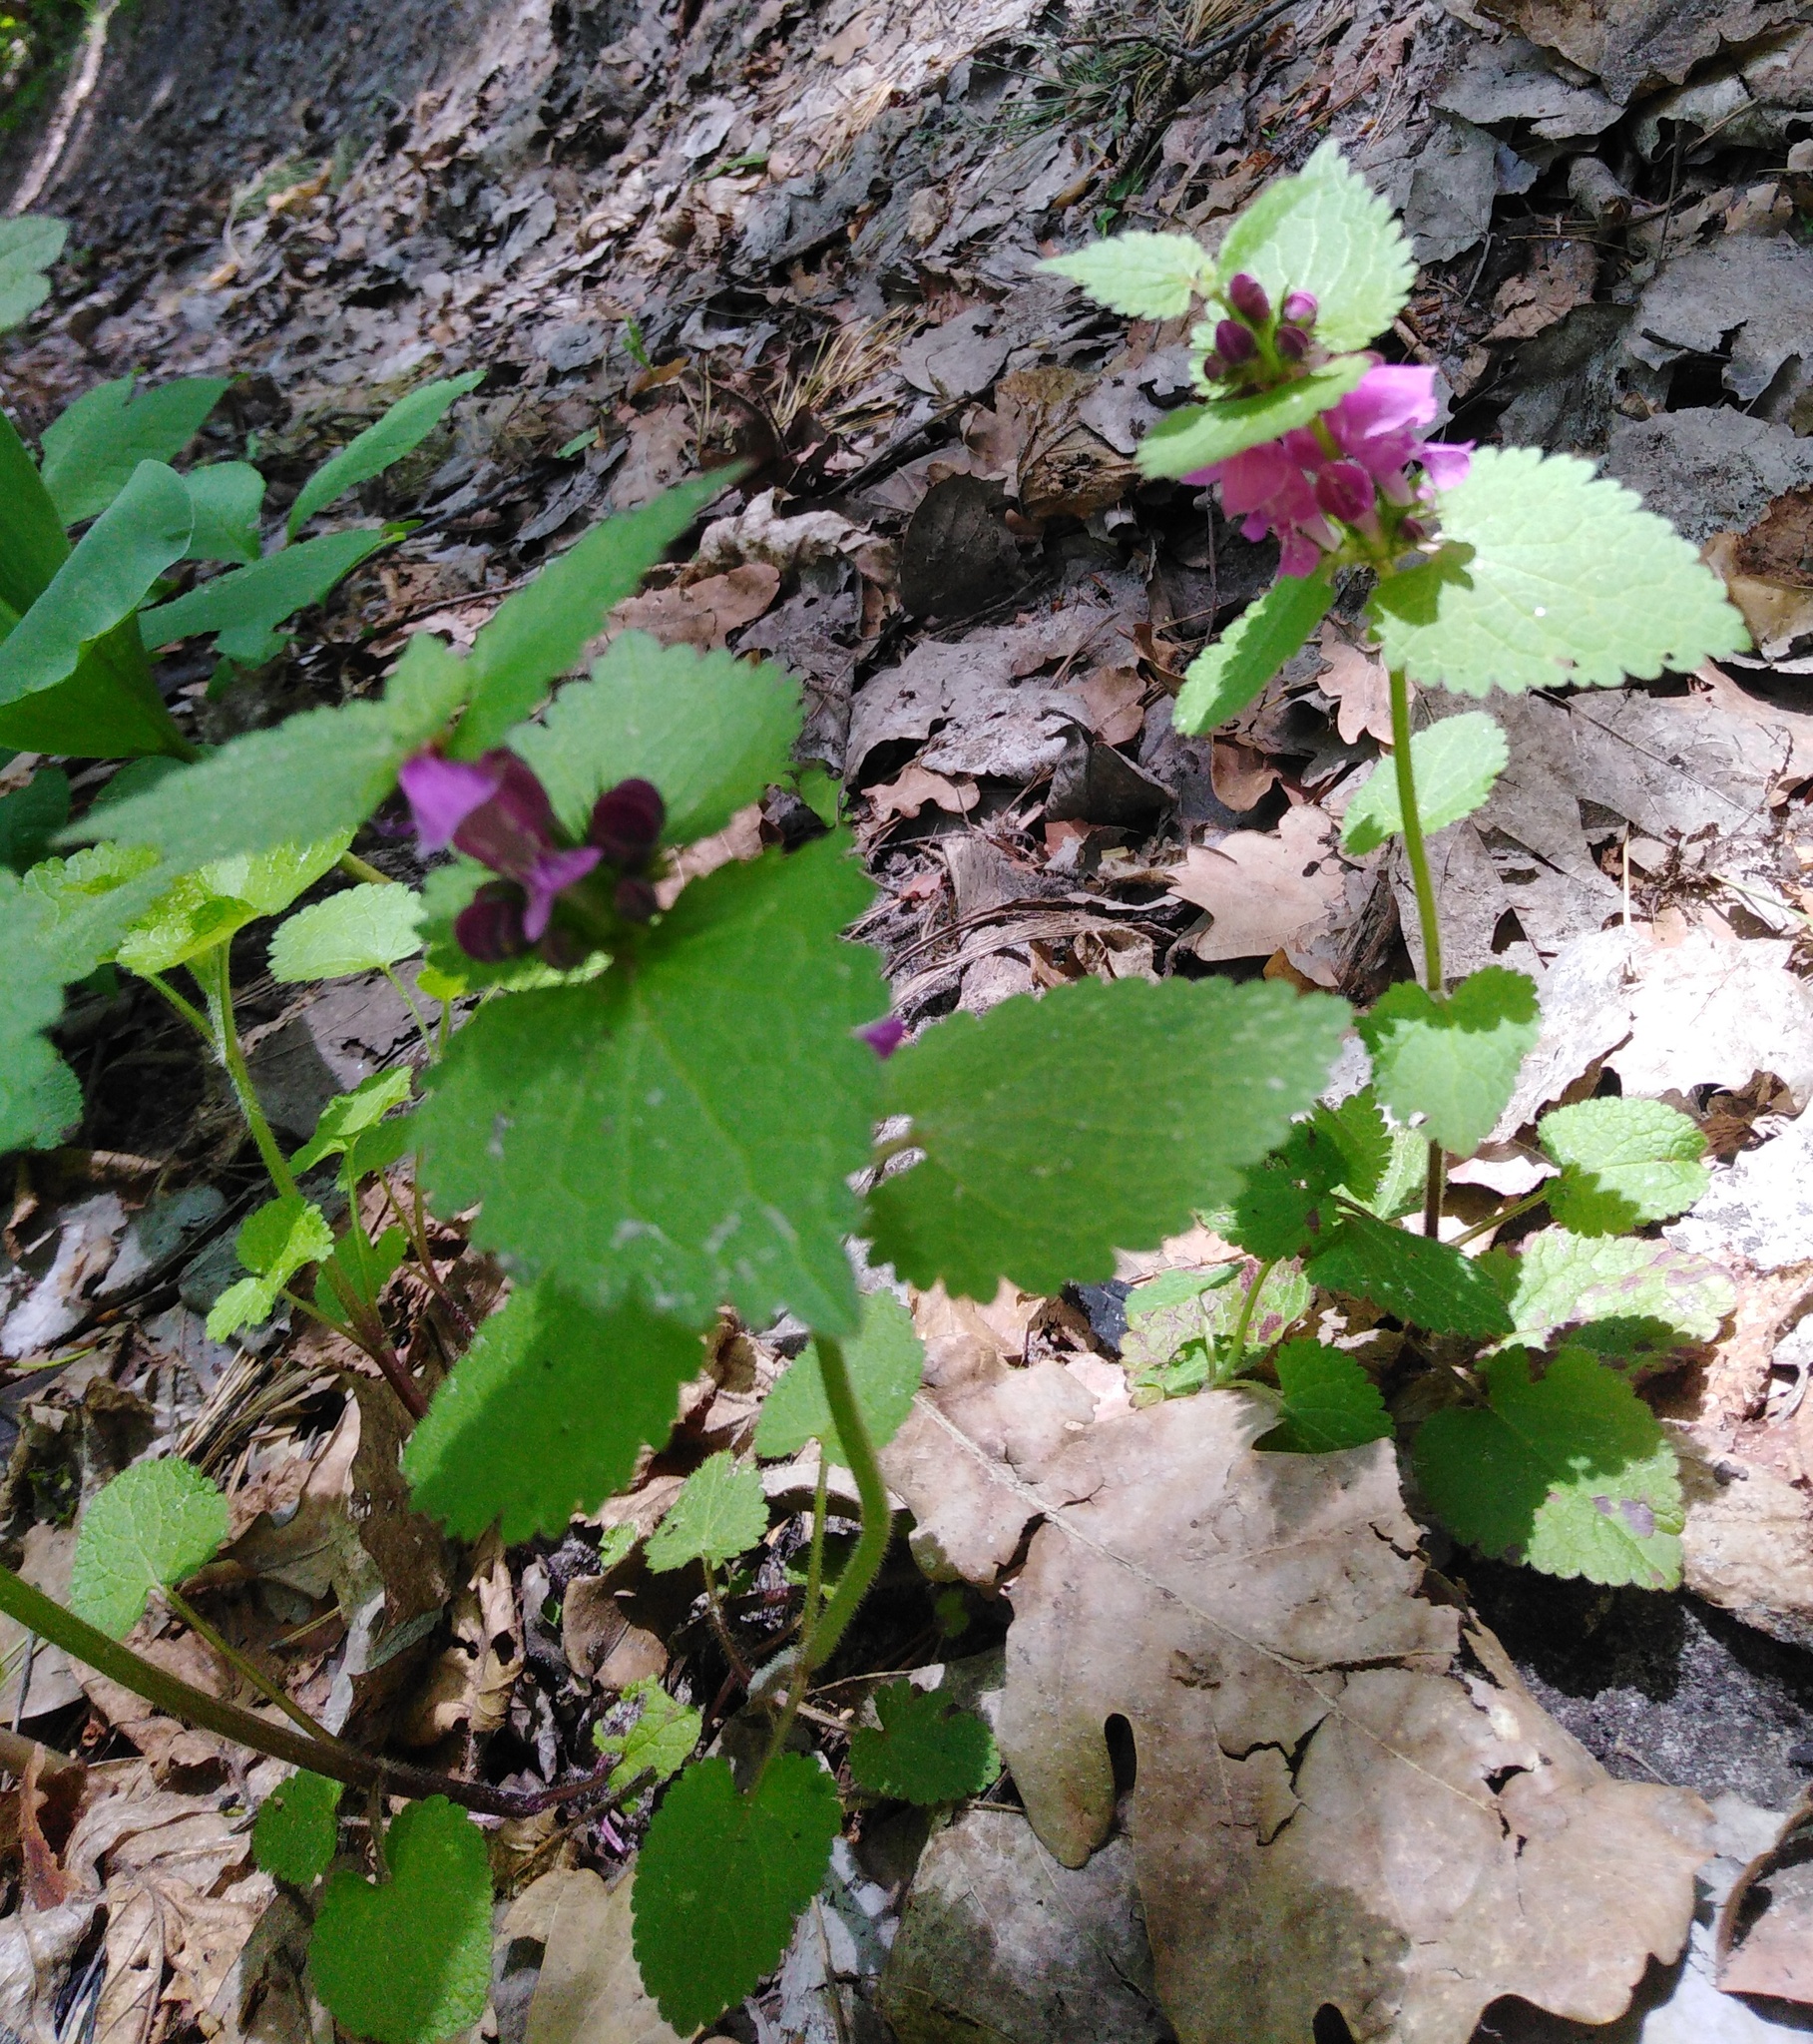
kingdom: Plantae
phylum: Tracheophyta
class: Magnoliopsida
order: Lamiales
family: Lamiaceae
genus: Lamium
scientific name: Lamium maculatum
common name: Spotted dead-nettle
